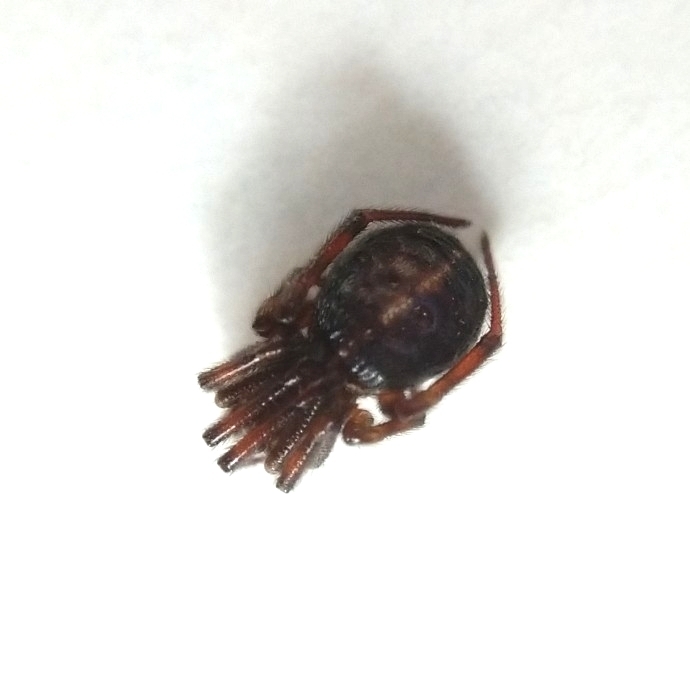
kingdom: Animalia
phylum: Arthropoda
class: Arachnida
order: Araneae
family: Theridiidae
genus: Steatoda
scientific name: Steatoda bipunctata
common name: False widow
